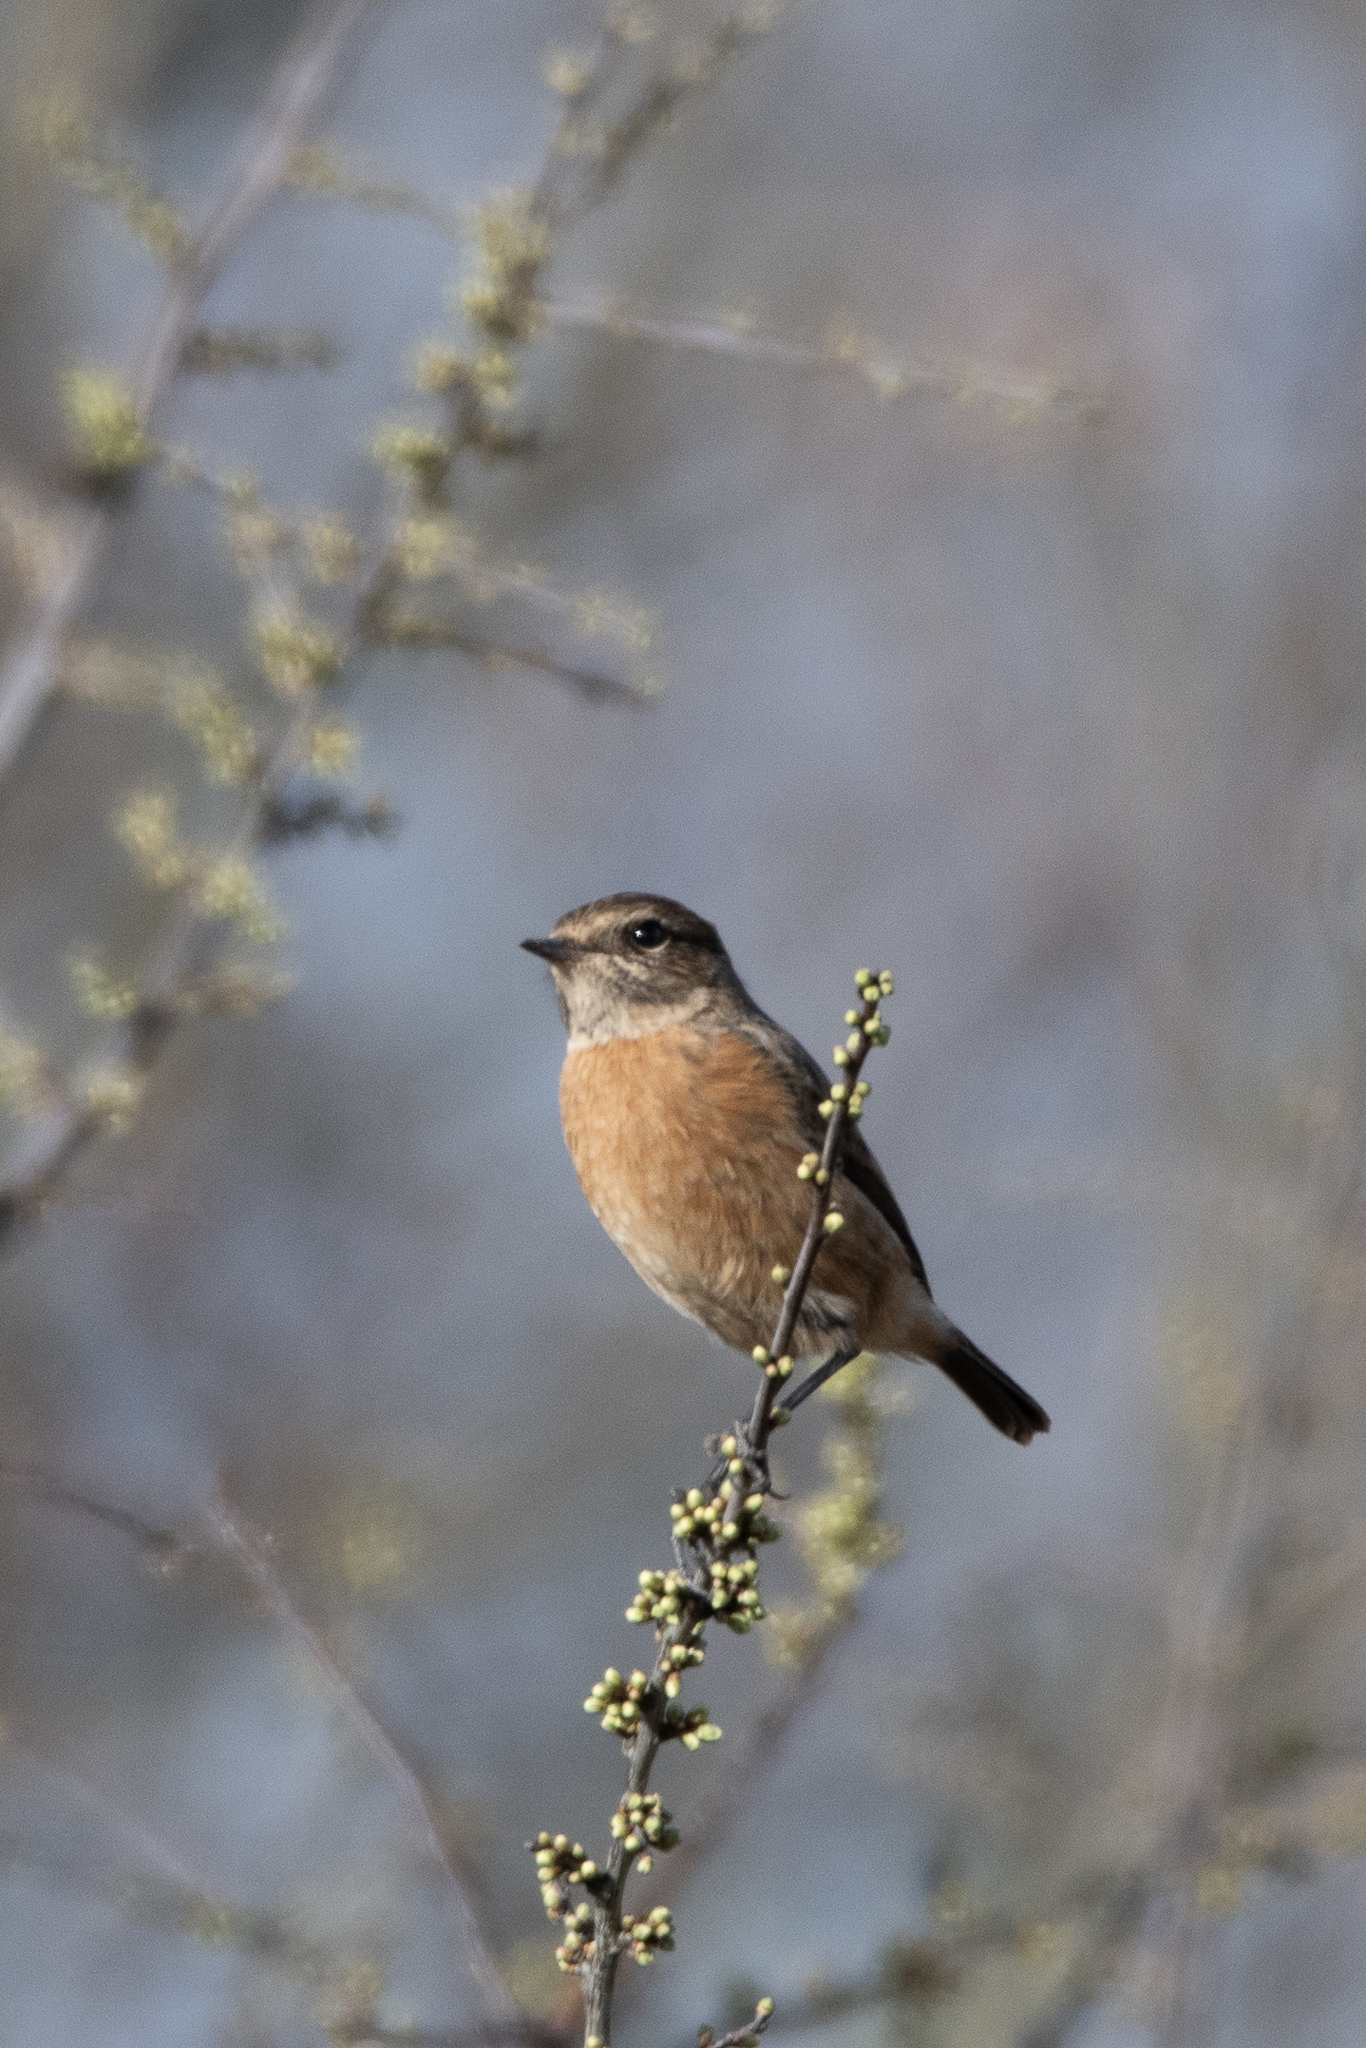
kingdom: Animalia
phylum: Chordata
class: Aves
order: Passeriformes
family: Muscicapidae
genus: Saxicola
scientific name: Saxicola rubicola
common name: European stonechat
